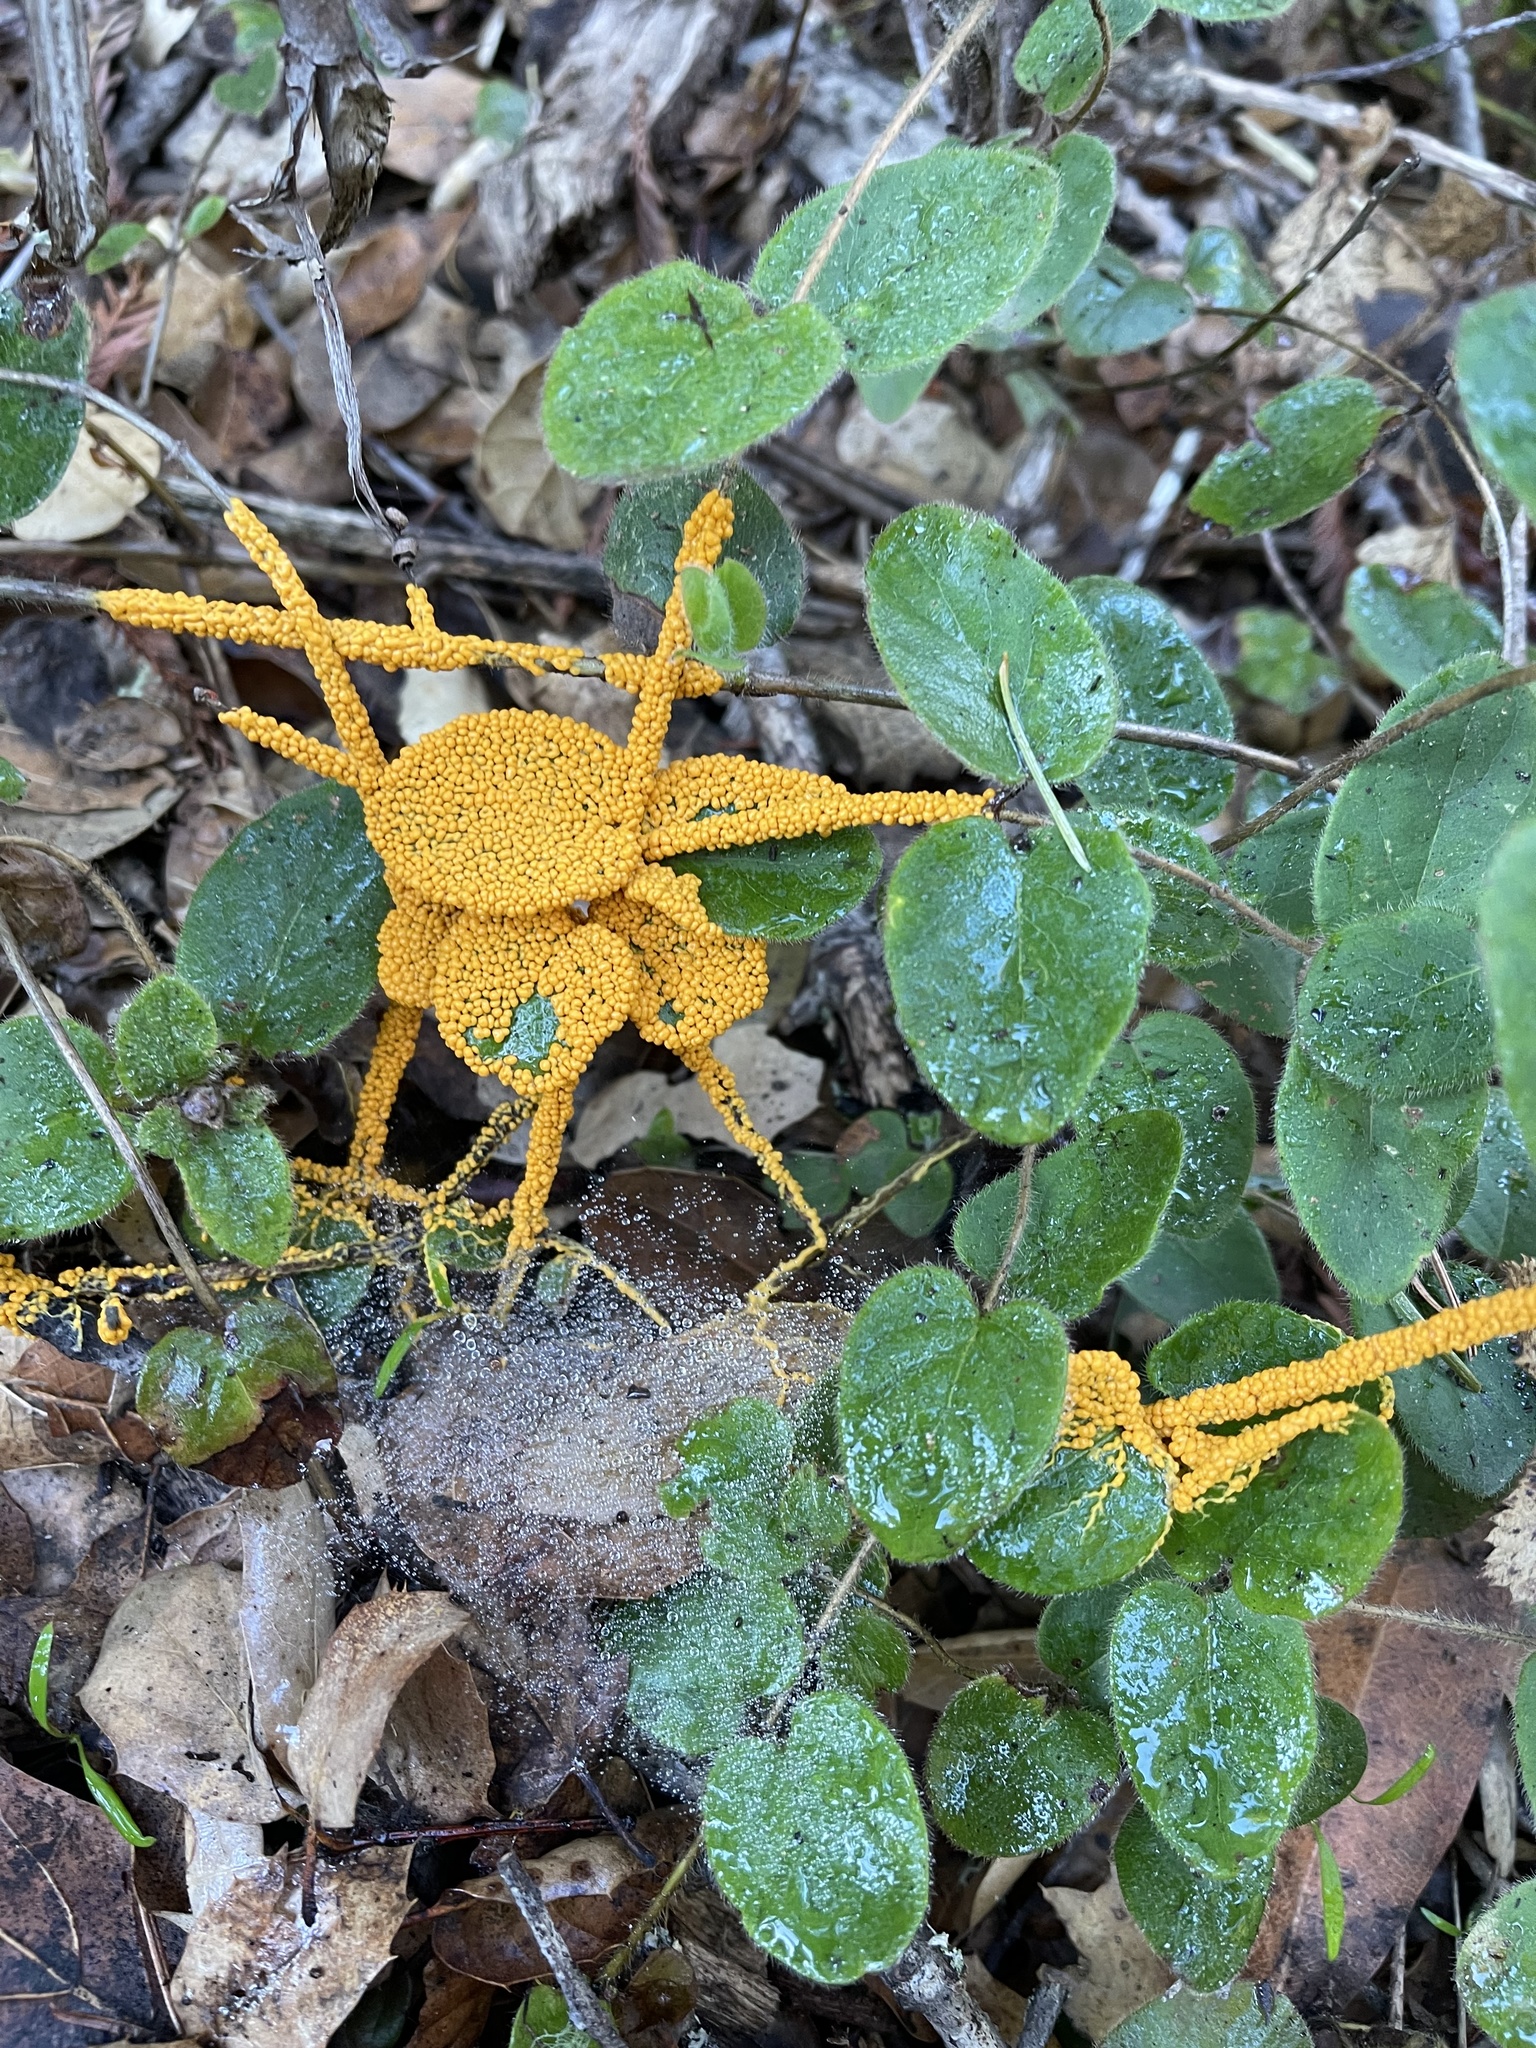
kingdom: Protozoa
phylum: Mycetozoa
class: Myxomycetes
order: Physarales
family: Physaraceae
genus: Leocarpus
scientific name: Leocarpus fragilis
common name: Insect-egg slime
